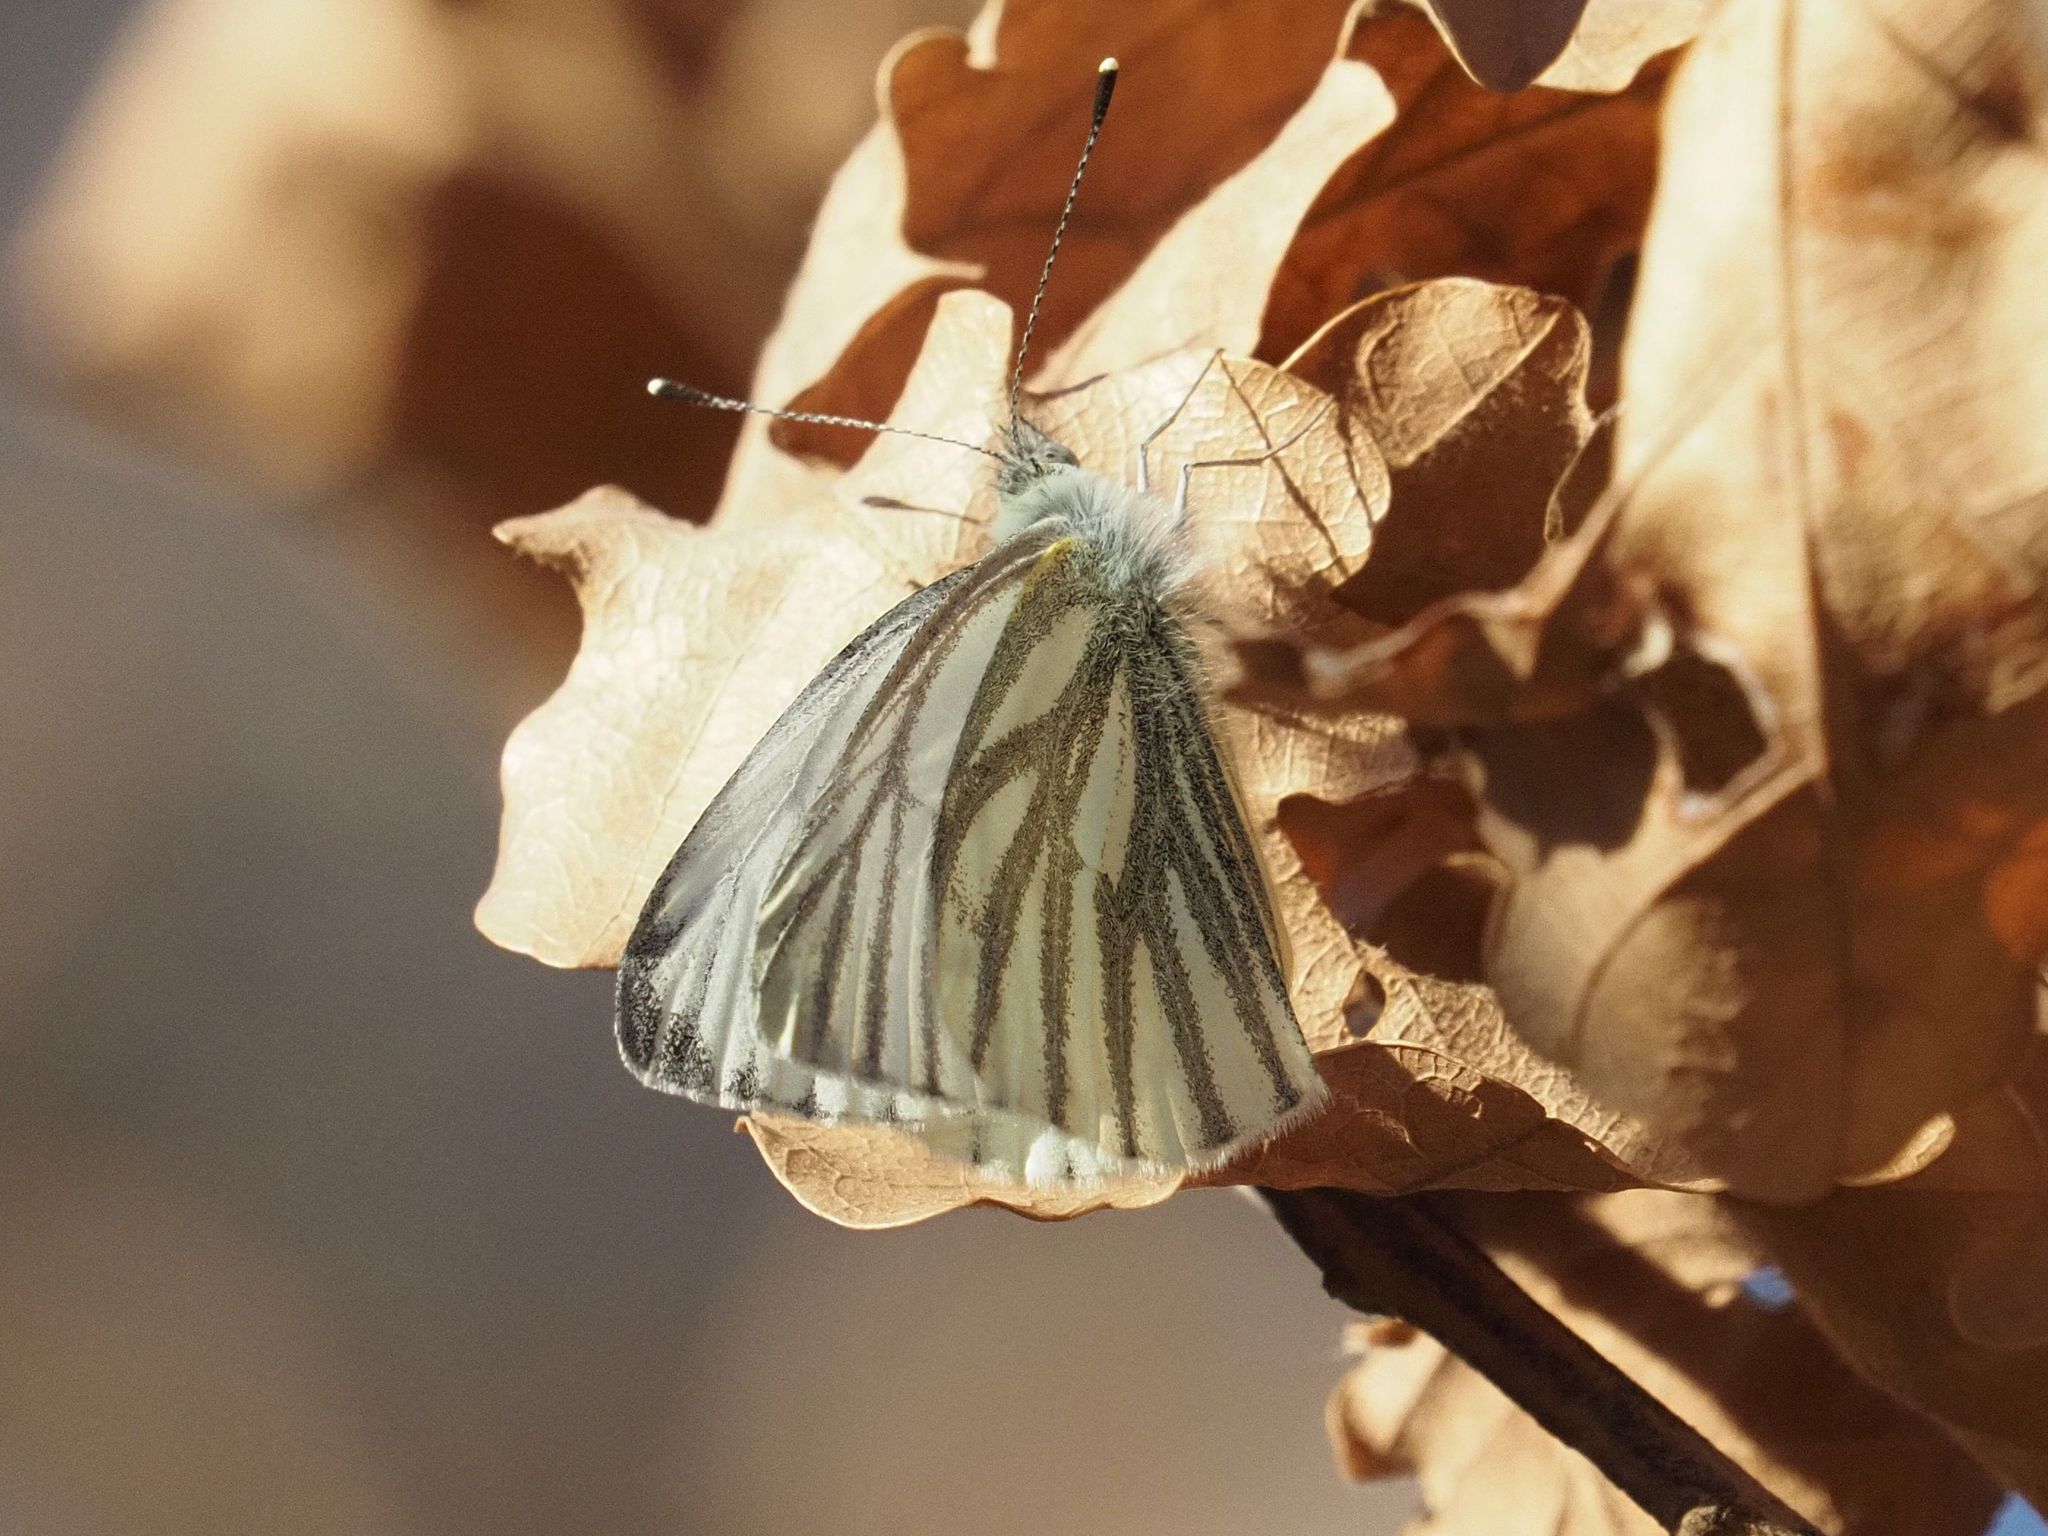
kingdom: Animalia
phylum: Arthropoda
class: Insecta
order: Lepidoptera
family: Pieridae
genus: Pieris
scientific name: Pieris napi
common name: Green-veined white
